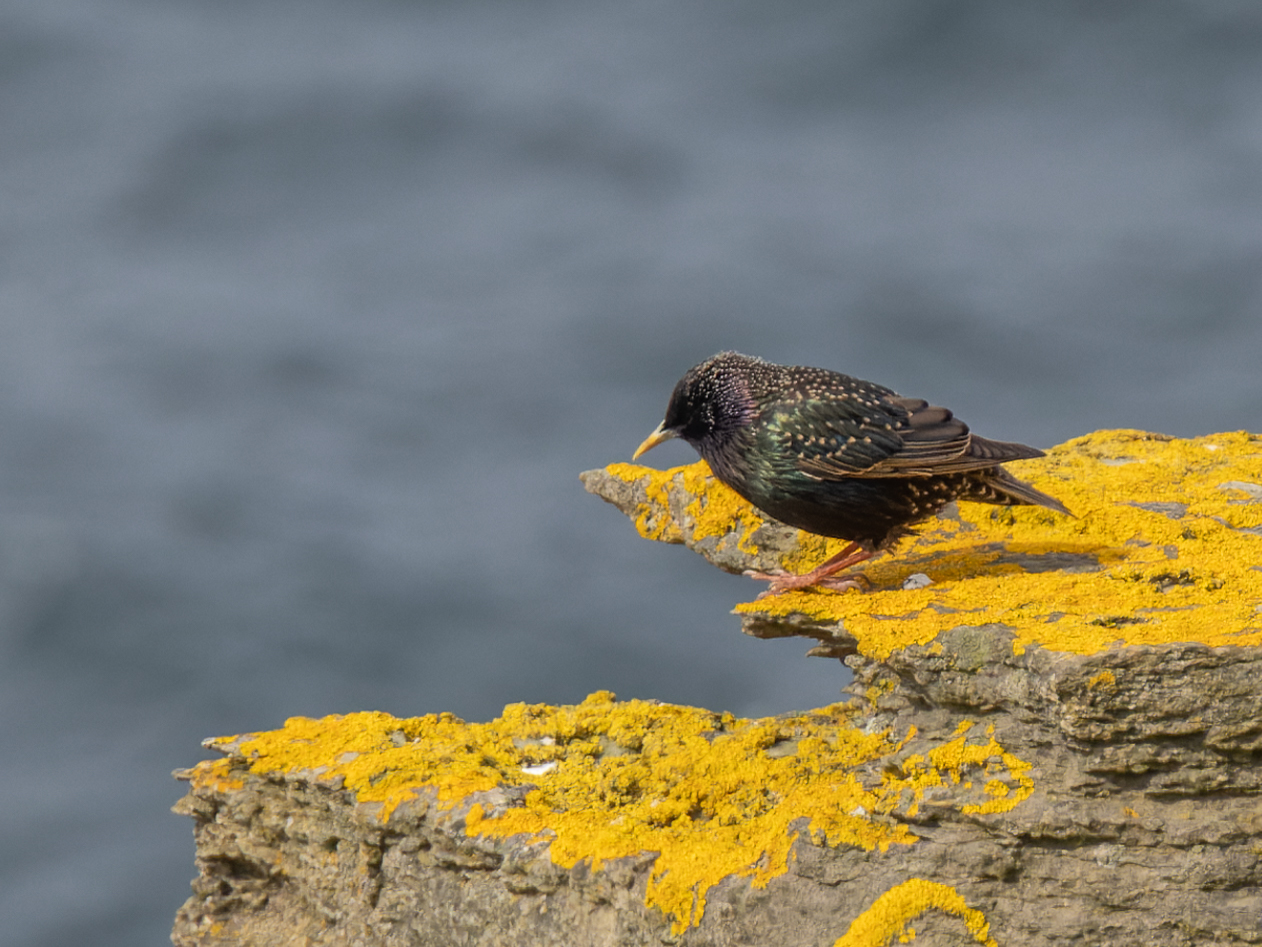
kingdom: Animalia
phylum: Chordata
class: Aves
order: Passeriformes
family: Sturnidae
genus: Sturnus
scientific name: Sturnus vulgaris
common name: Common starling
